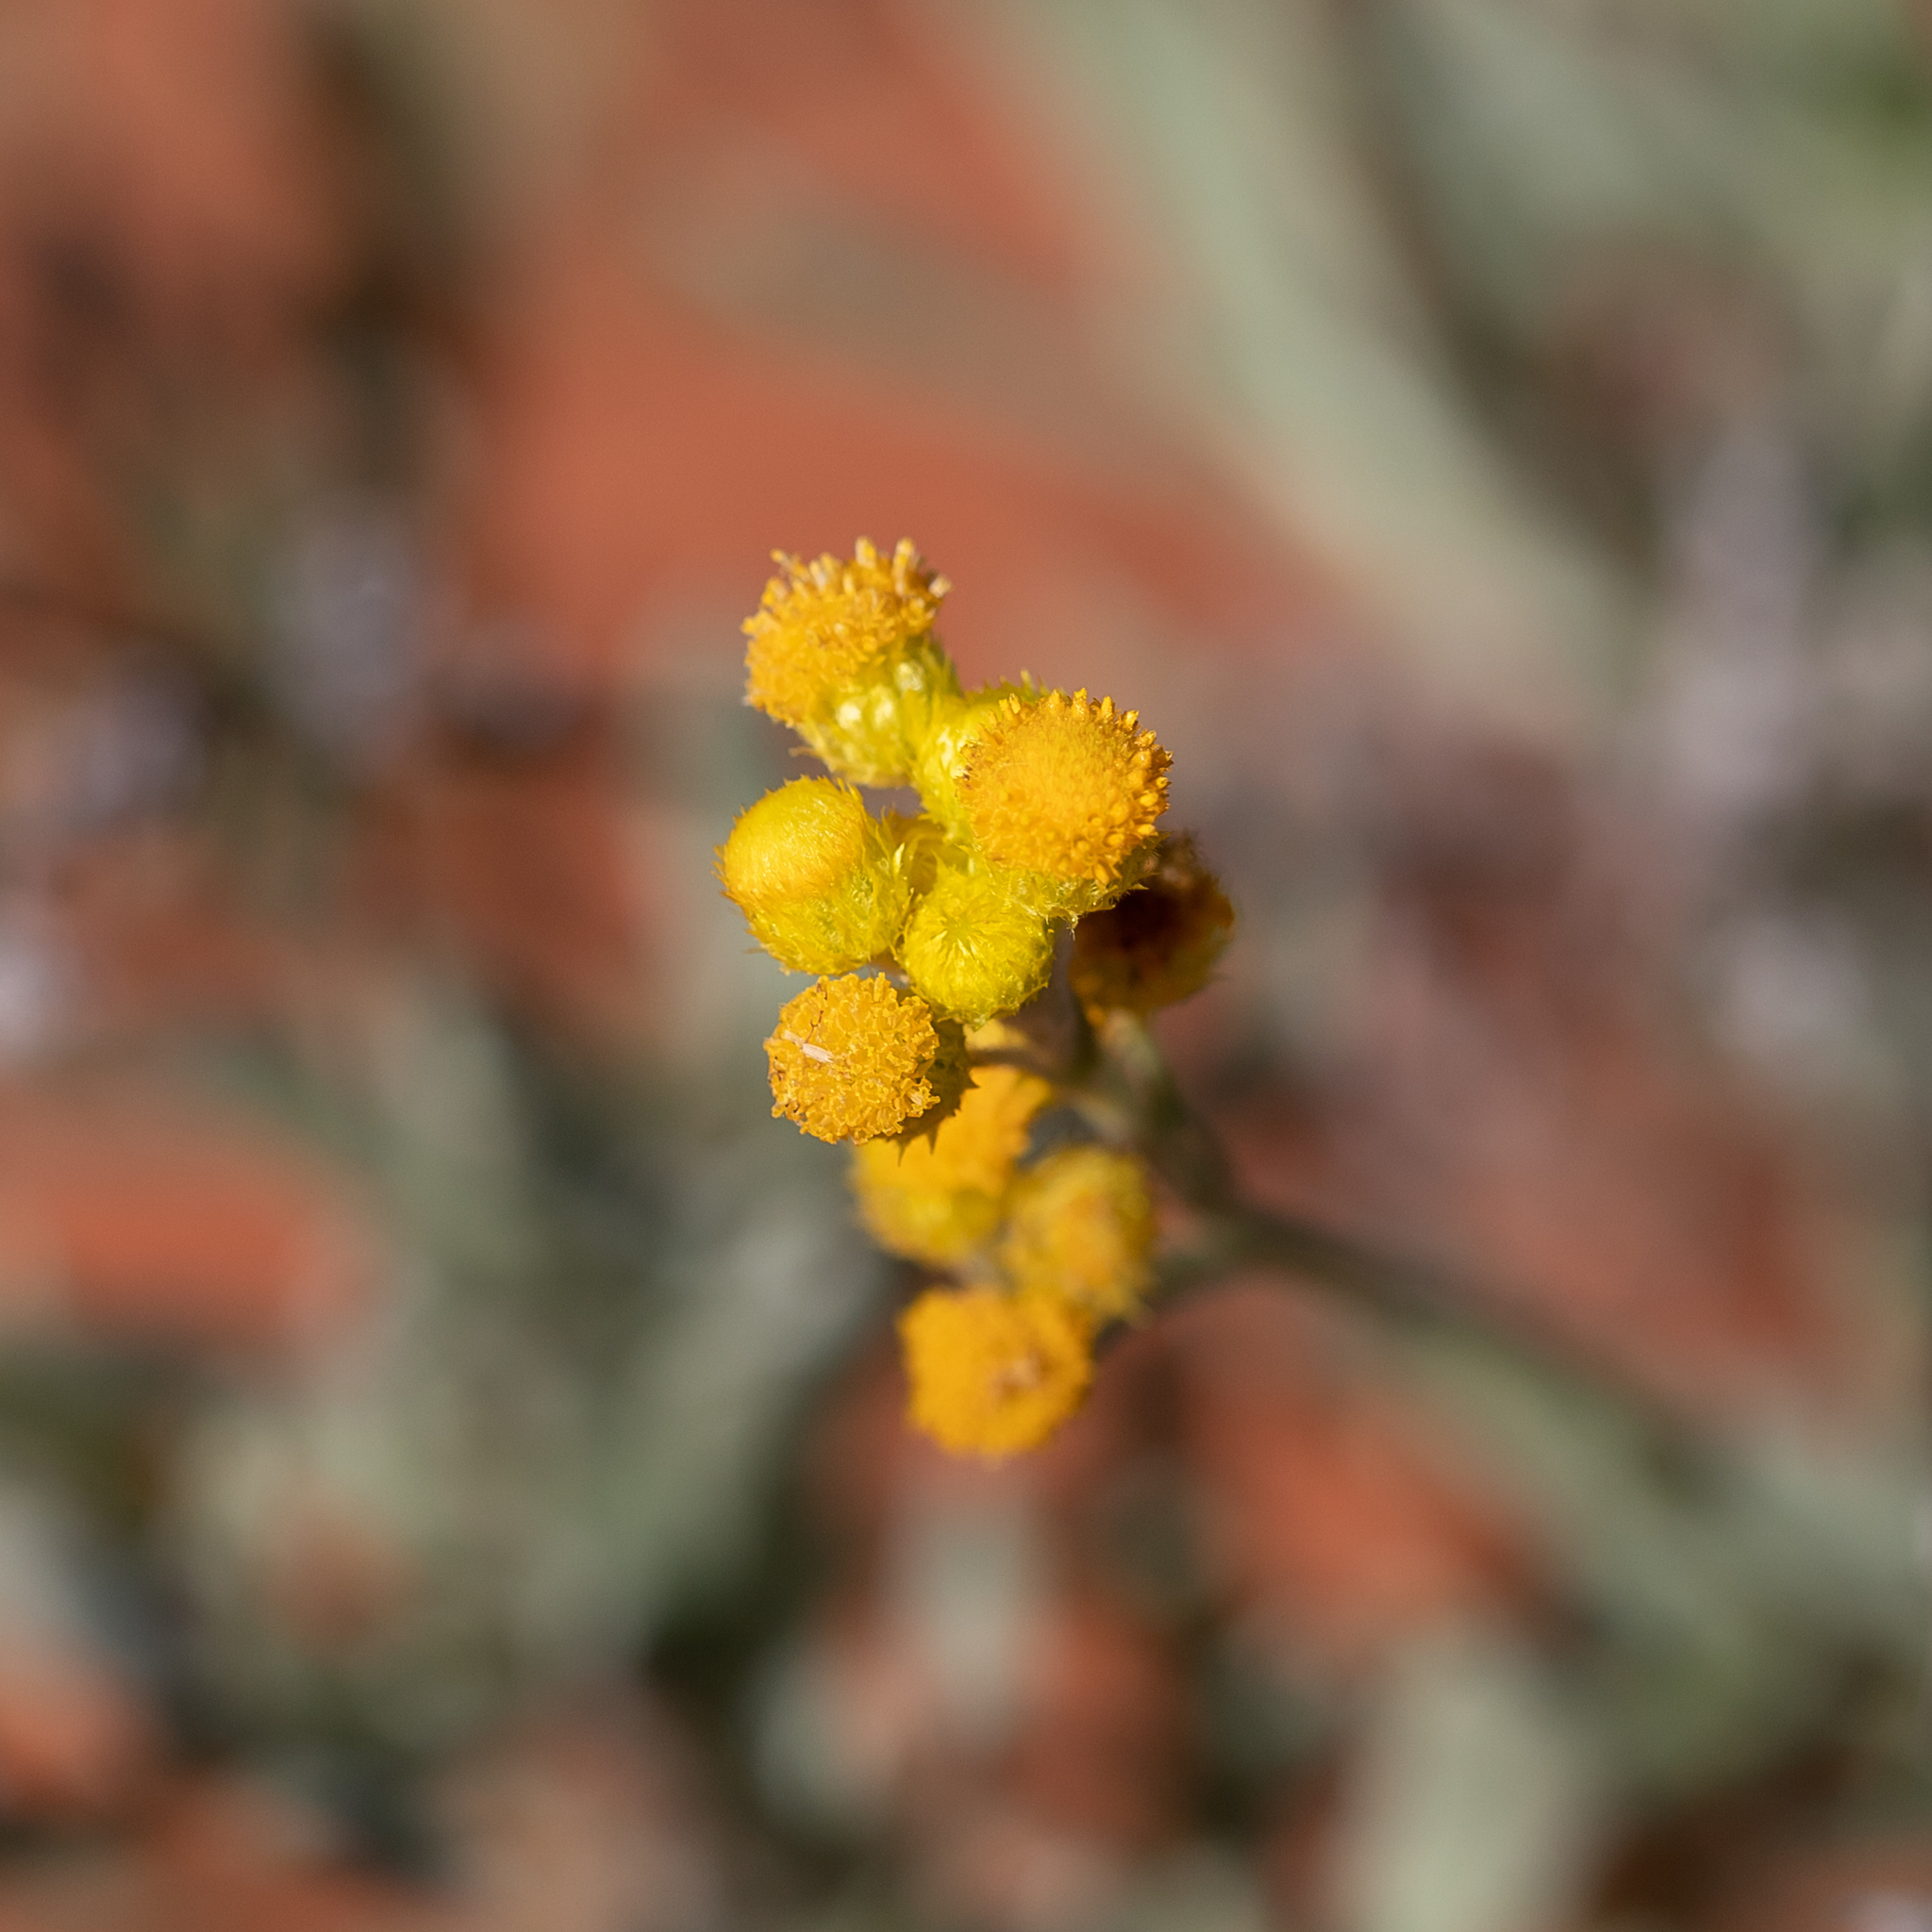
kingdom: Plantae
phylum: Tracheophyta
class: Magnoliopsida
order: Asterales
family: Asteraceae
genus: Chrysocephalum
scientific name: Chrysocephalum apiculatum
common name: Common everlasting
